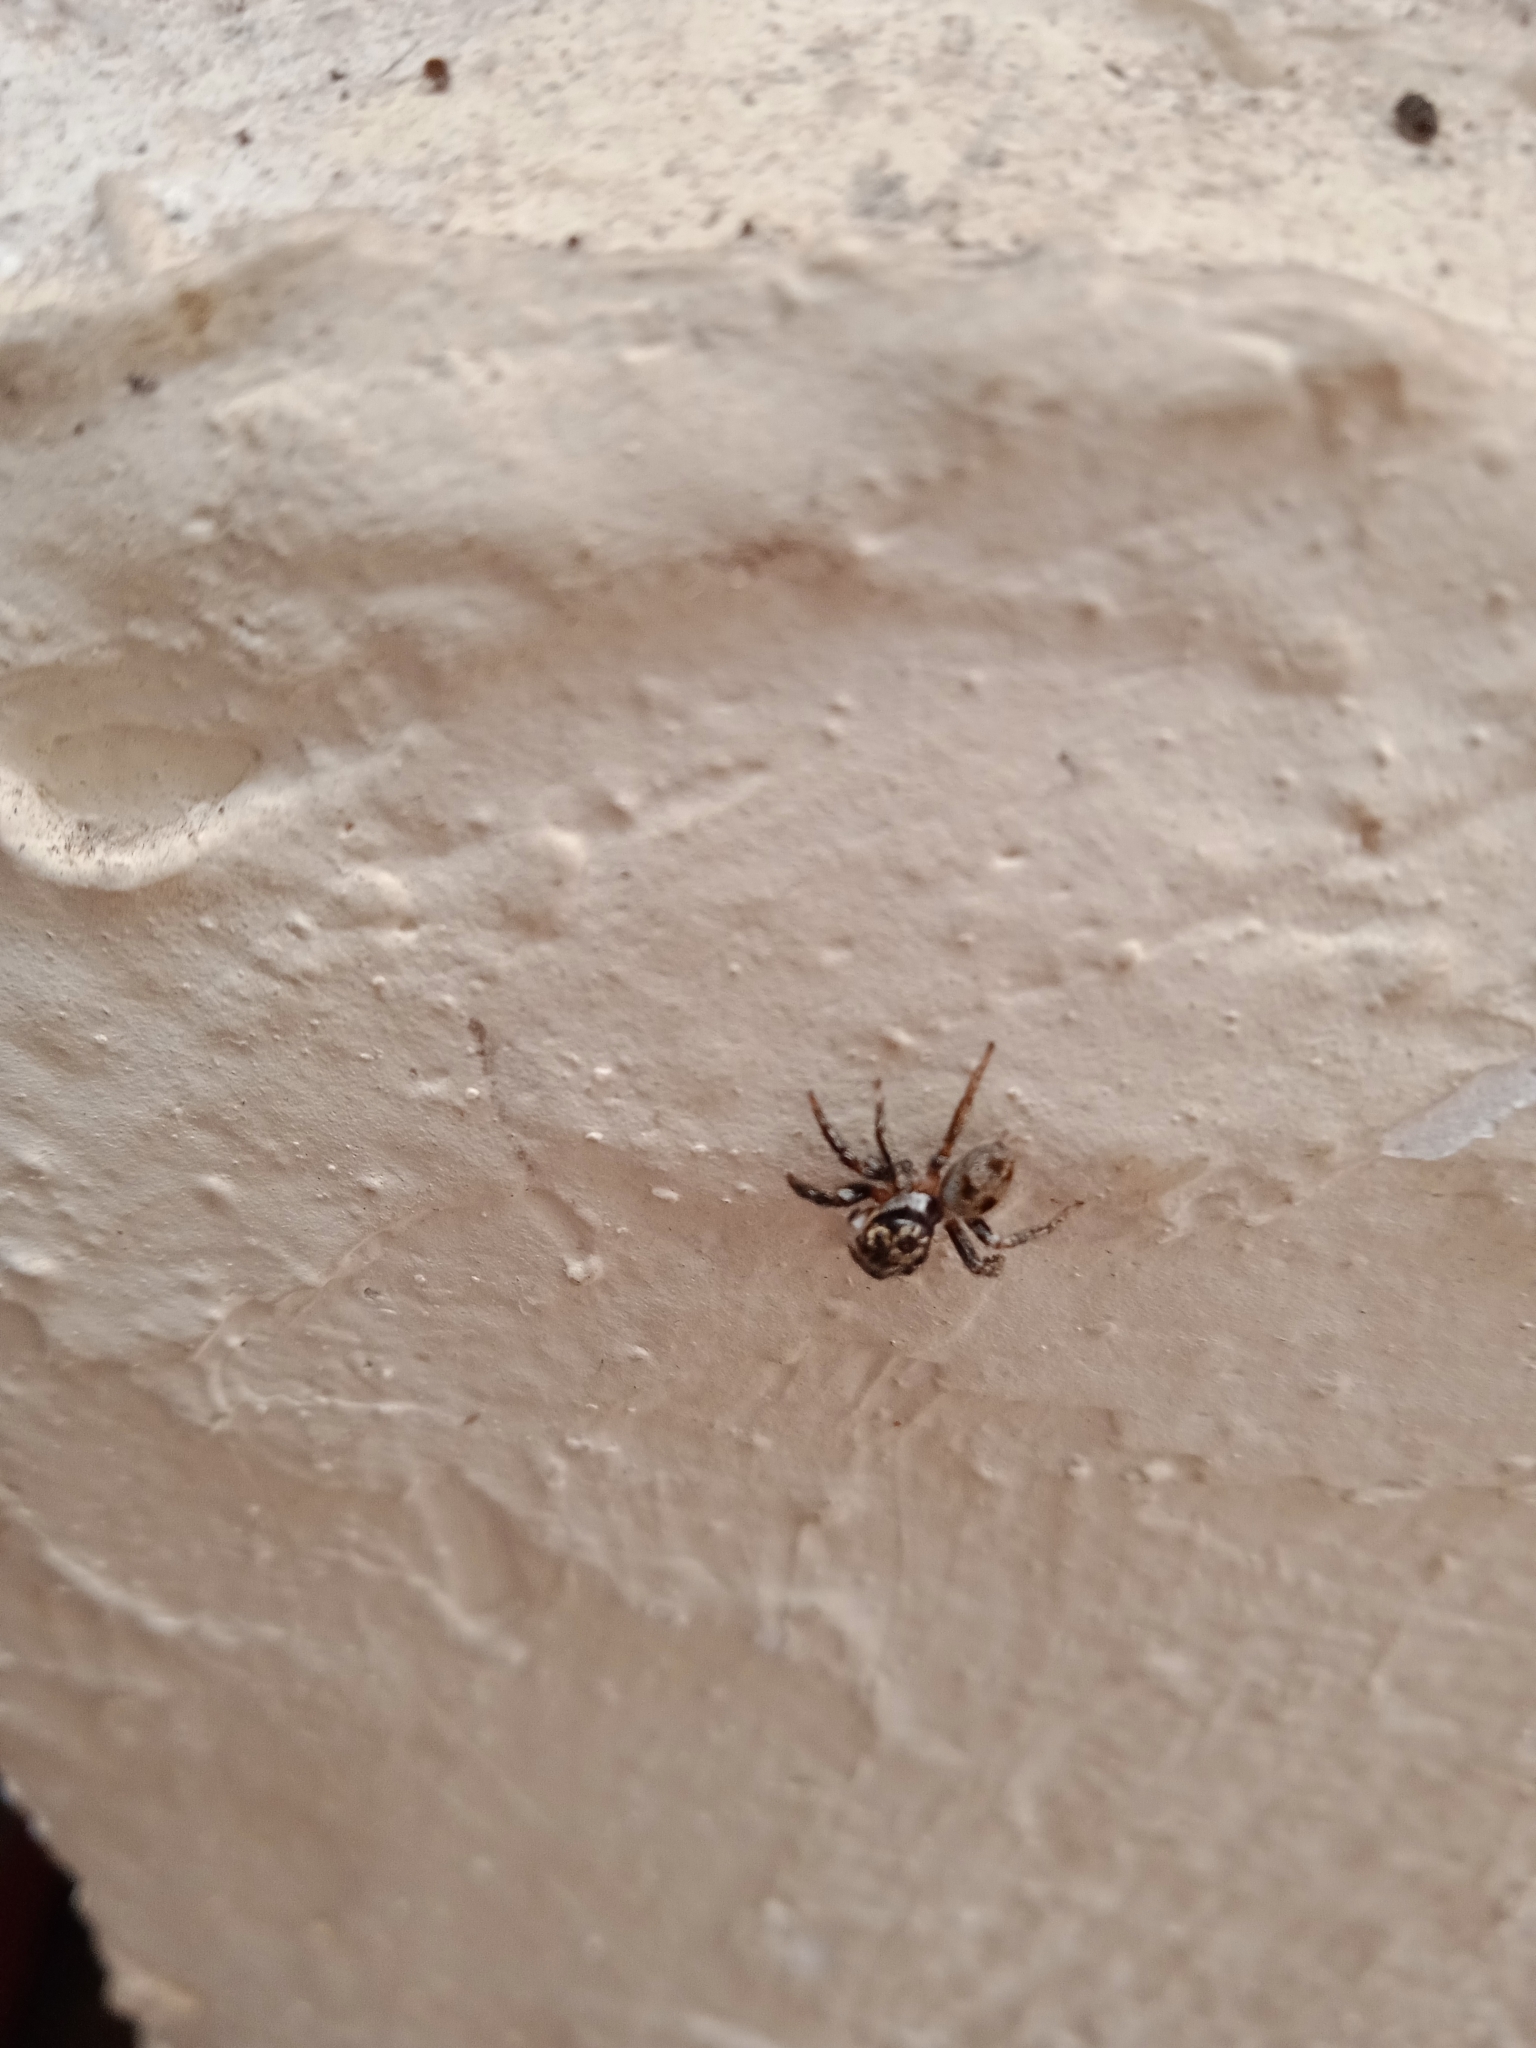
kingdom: Animalia
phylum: Arthropoda
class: Arachnida
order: Araneae
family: Salticidae
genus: Corythalia
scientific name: Corythalia conferta
